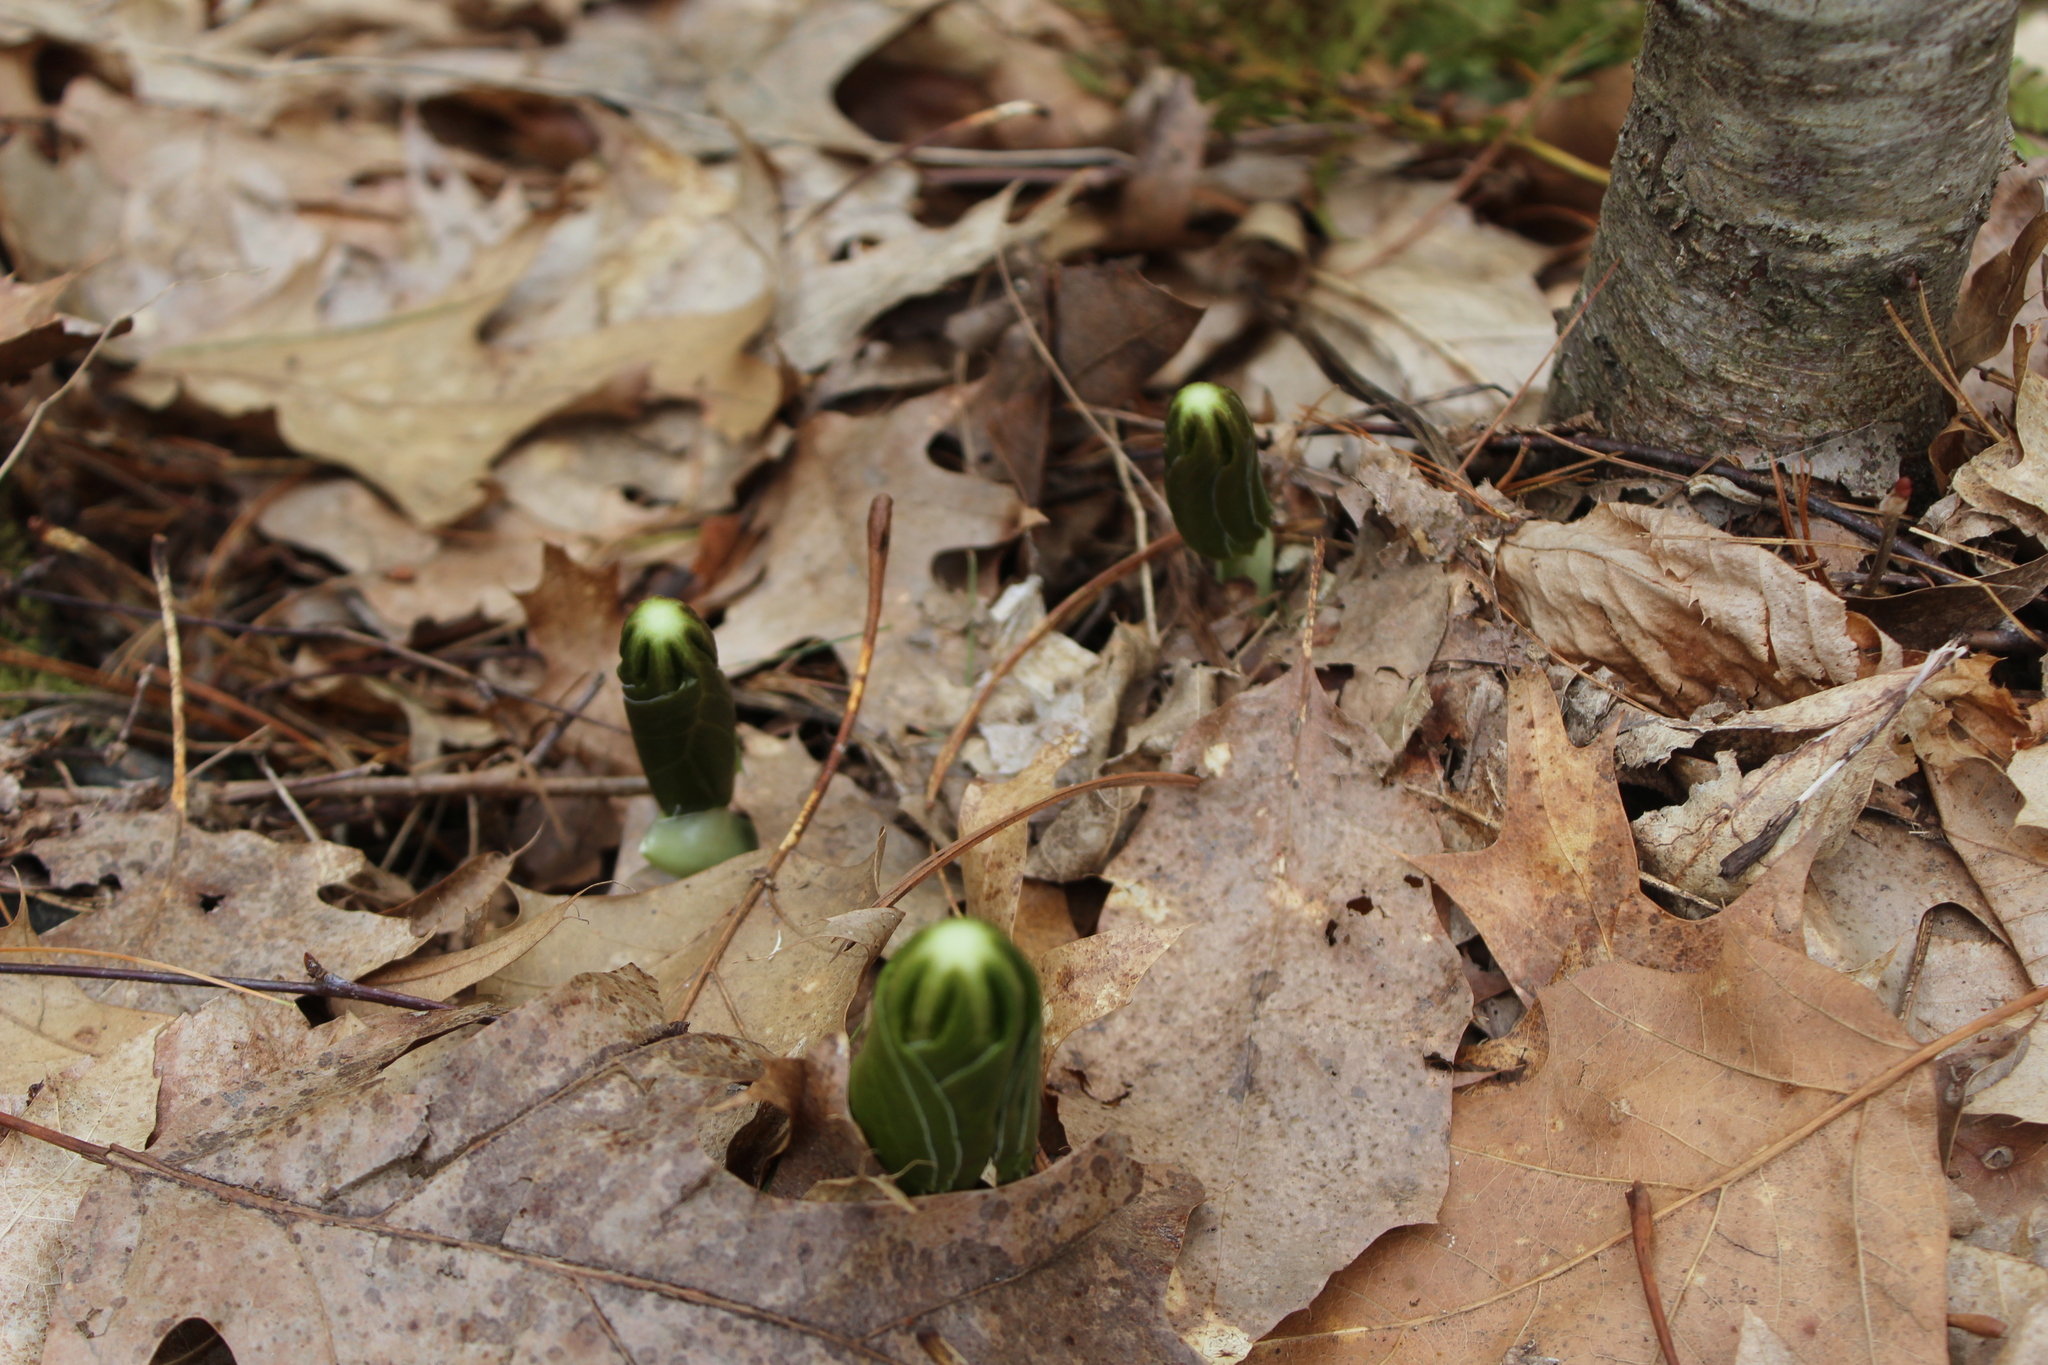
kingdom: Plantae
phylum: Tracheophyta
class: Magnoliopsida
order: Ranunculales
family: Berberidaceae
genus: Podophyllum
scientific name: Podophyllum peltatum
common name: Wild mandrake
